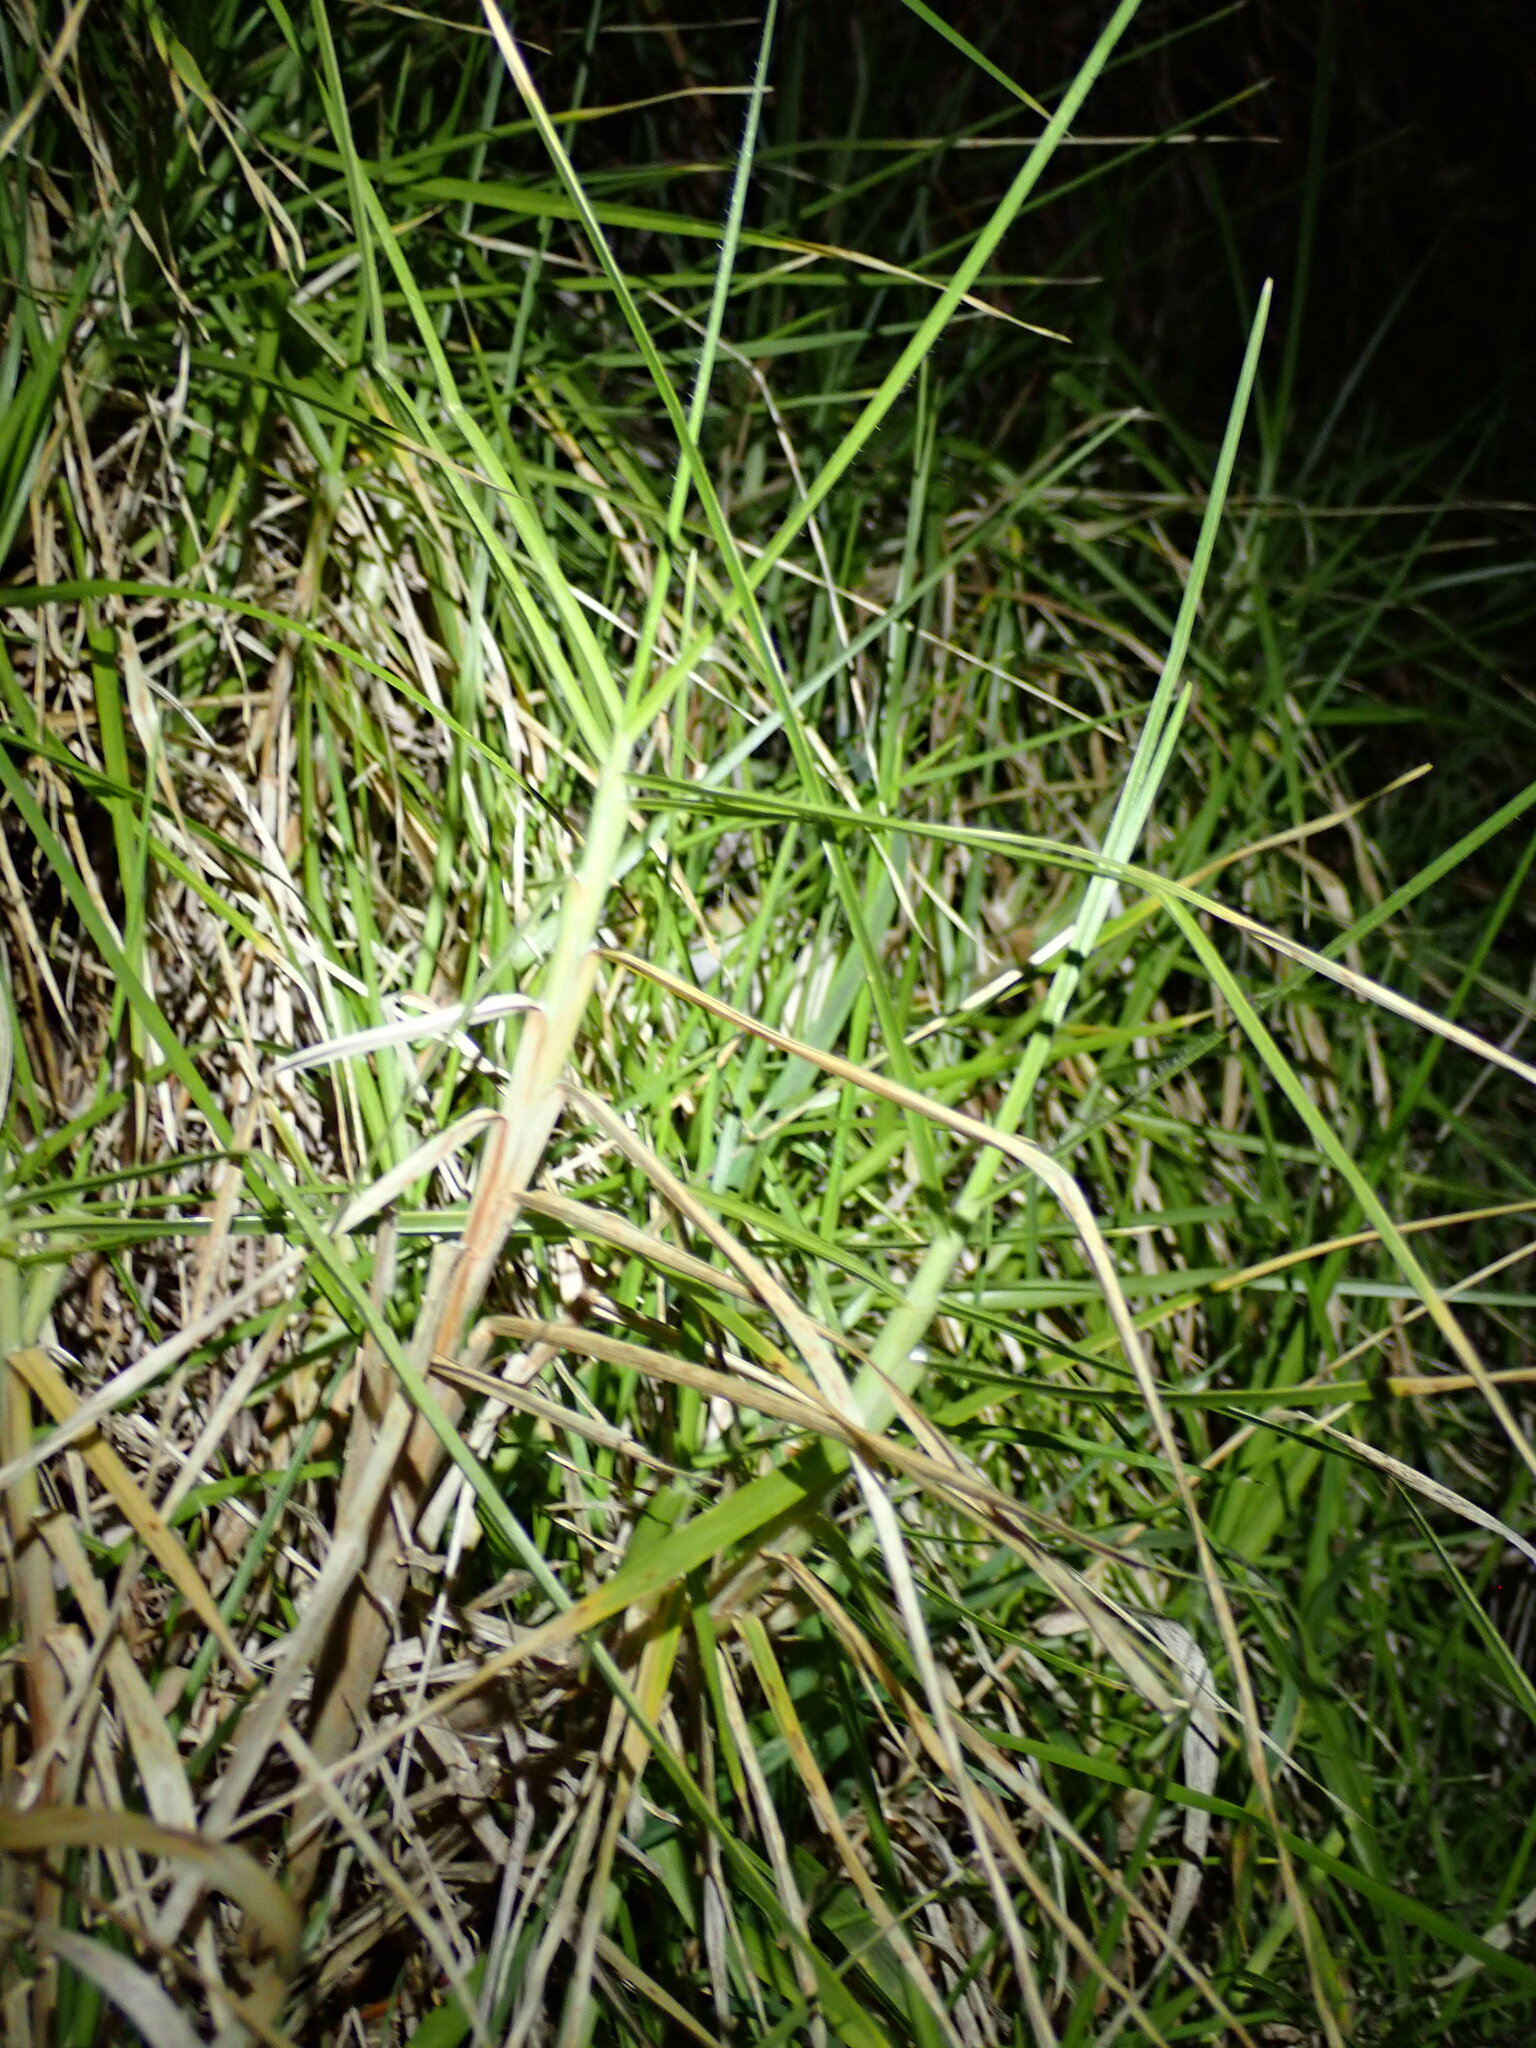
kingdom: Plantae
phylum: Tracheophyta
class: Liliopsida
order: Poales
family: Poaceae
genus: Cenchrus
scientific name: Cenchrus clandestinus
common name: Kikuyugrass
